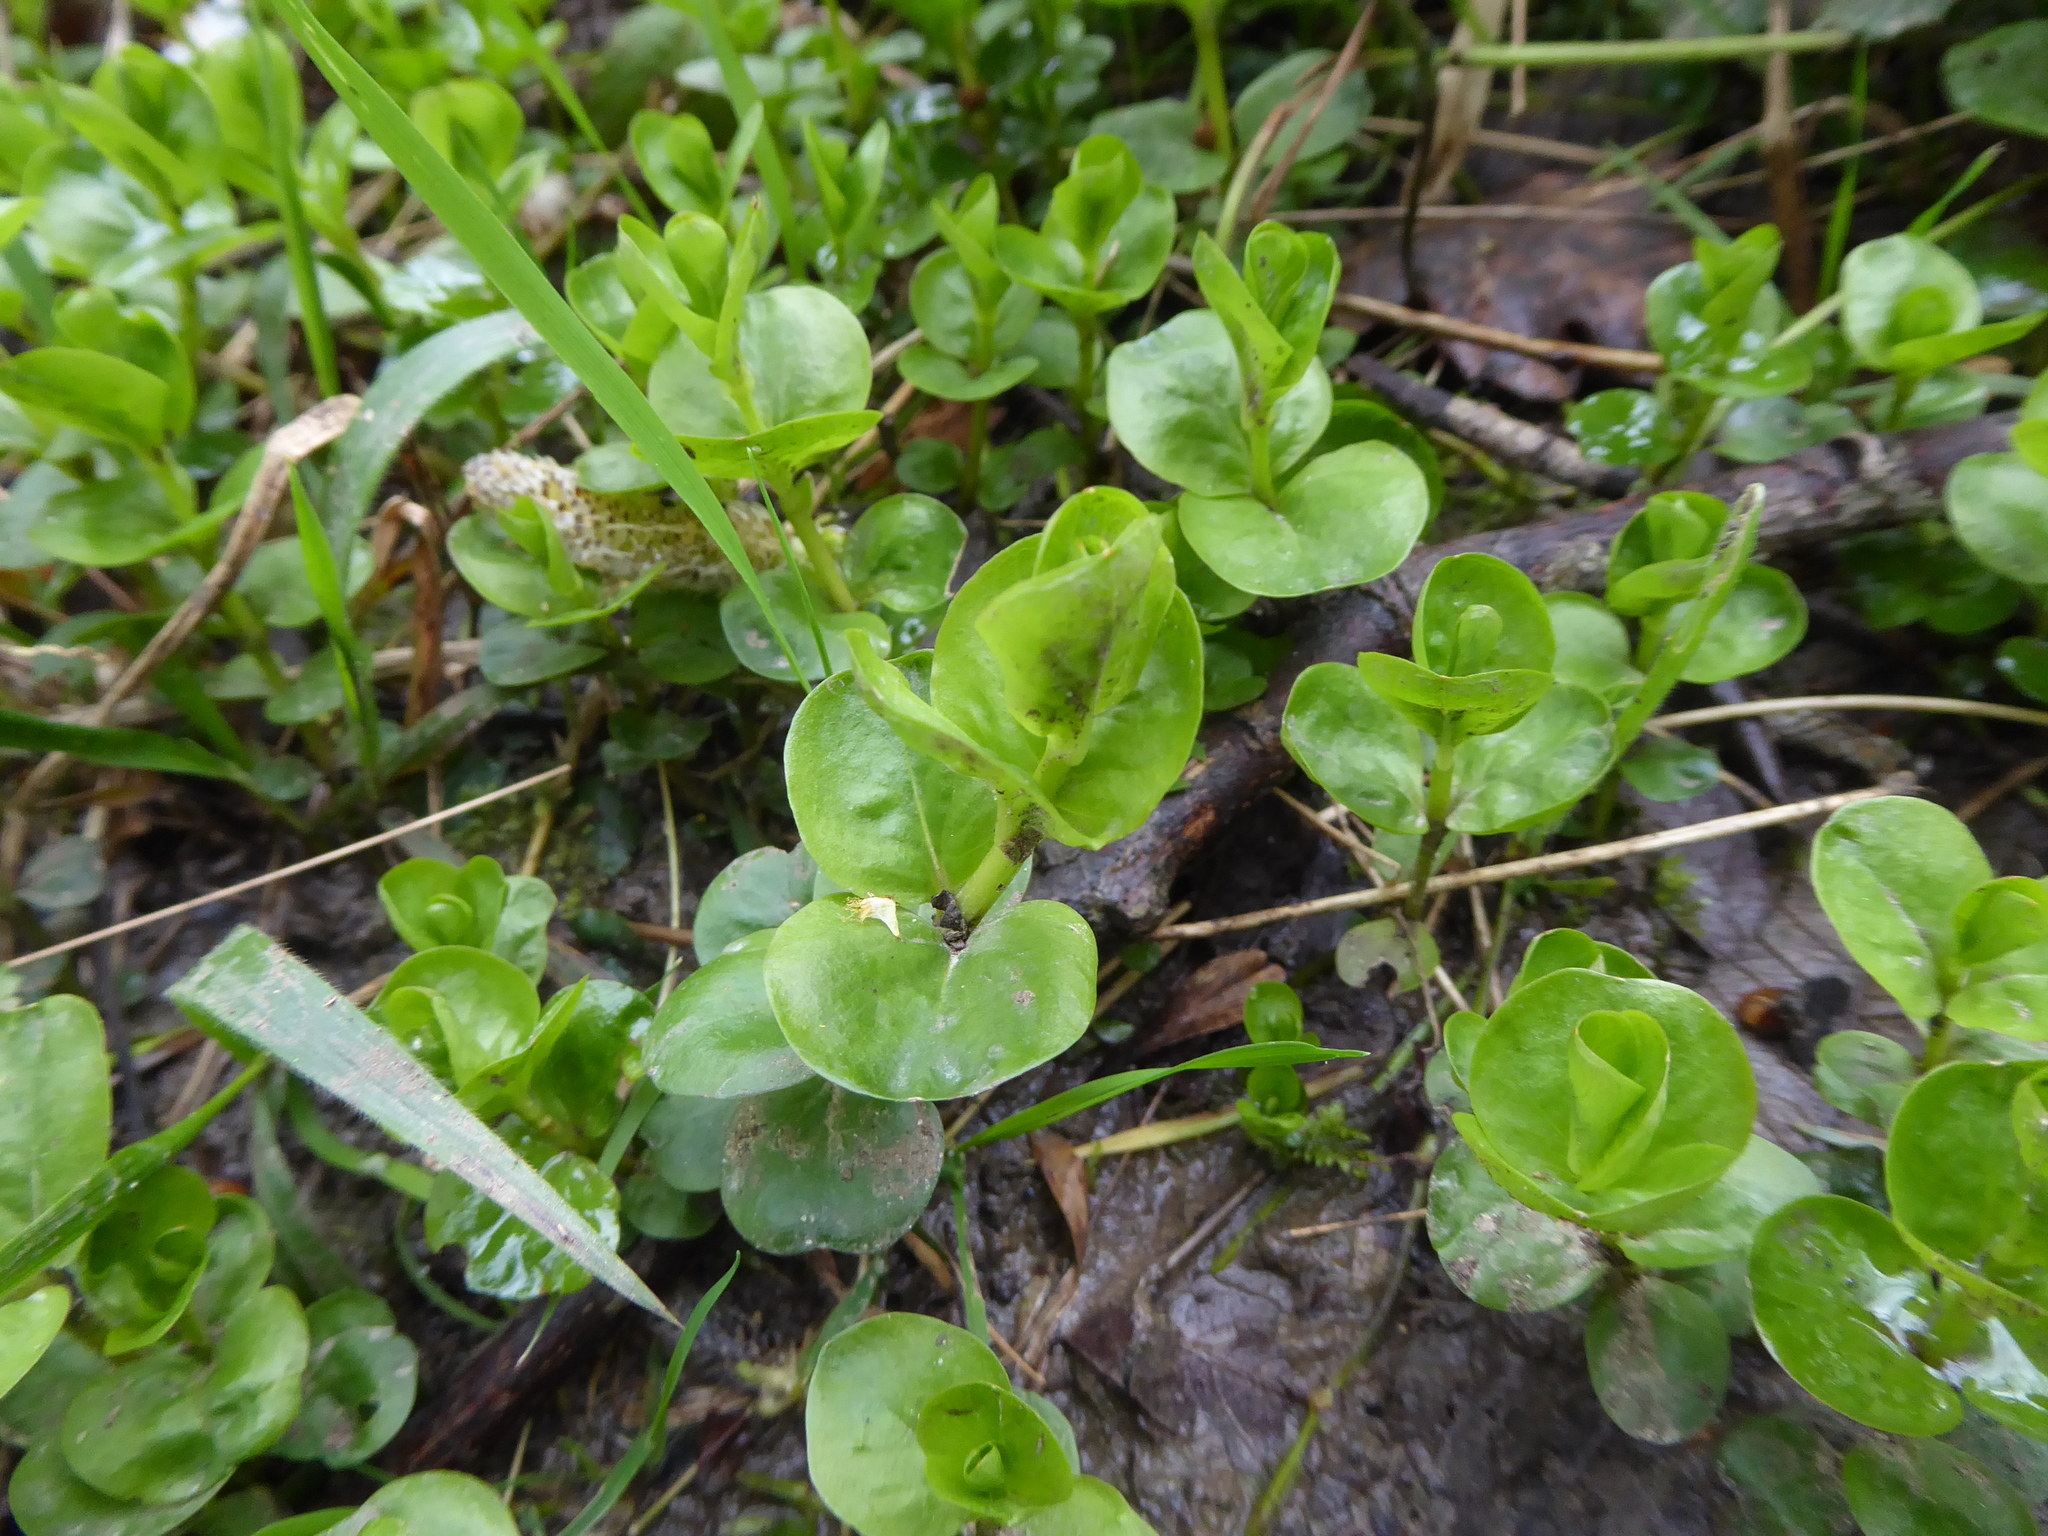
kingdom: Plantae
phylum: Tracheophyta
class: Magnoliopsida
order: Ericales
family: Primulaceae
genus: Lysimachia
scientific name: Lysimachia nummularia
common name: Moneywort
